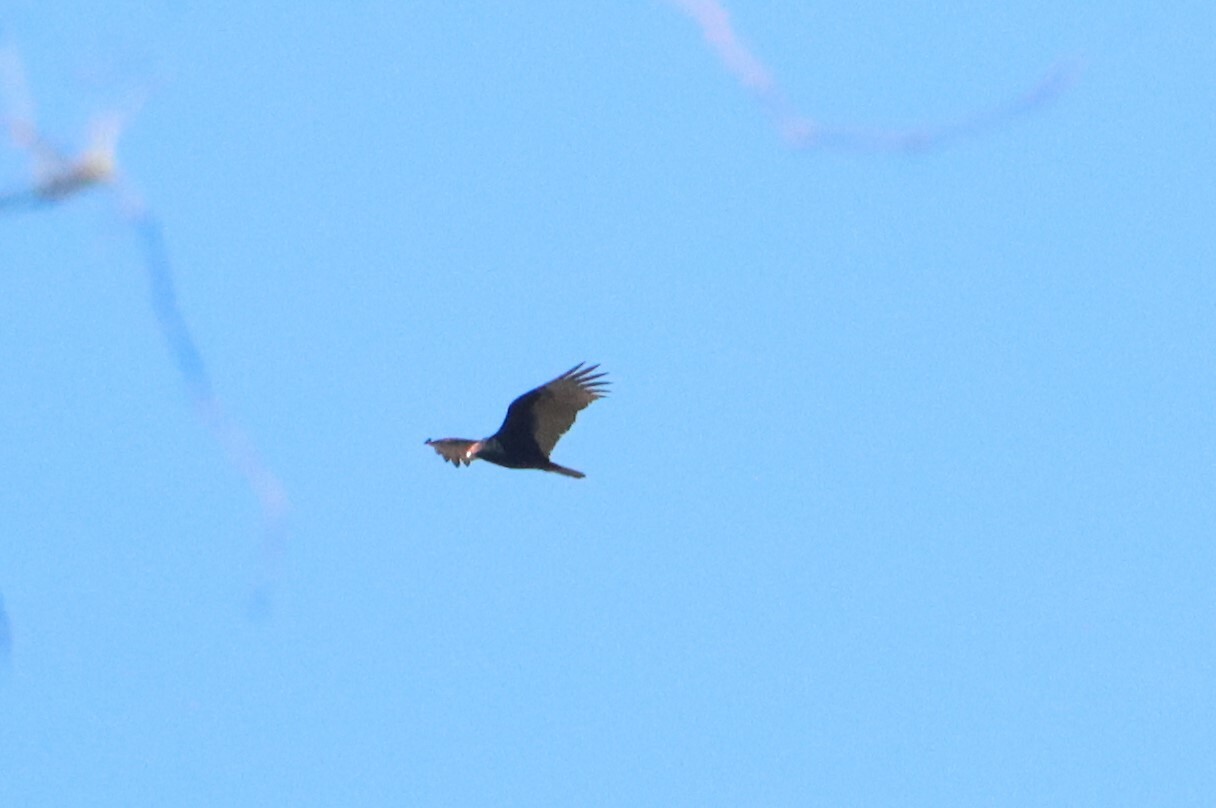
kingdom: Animalia
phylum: Chordata
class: Aves
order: Accipitriformes
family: Cathartidae
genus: Cathartes
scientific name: Cathartes aura
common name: Turkey vulture
